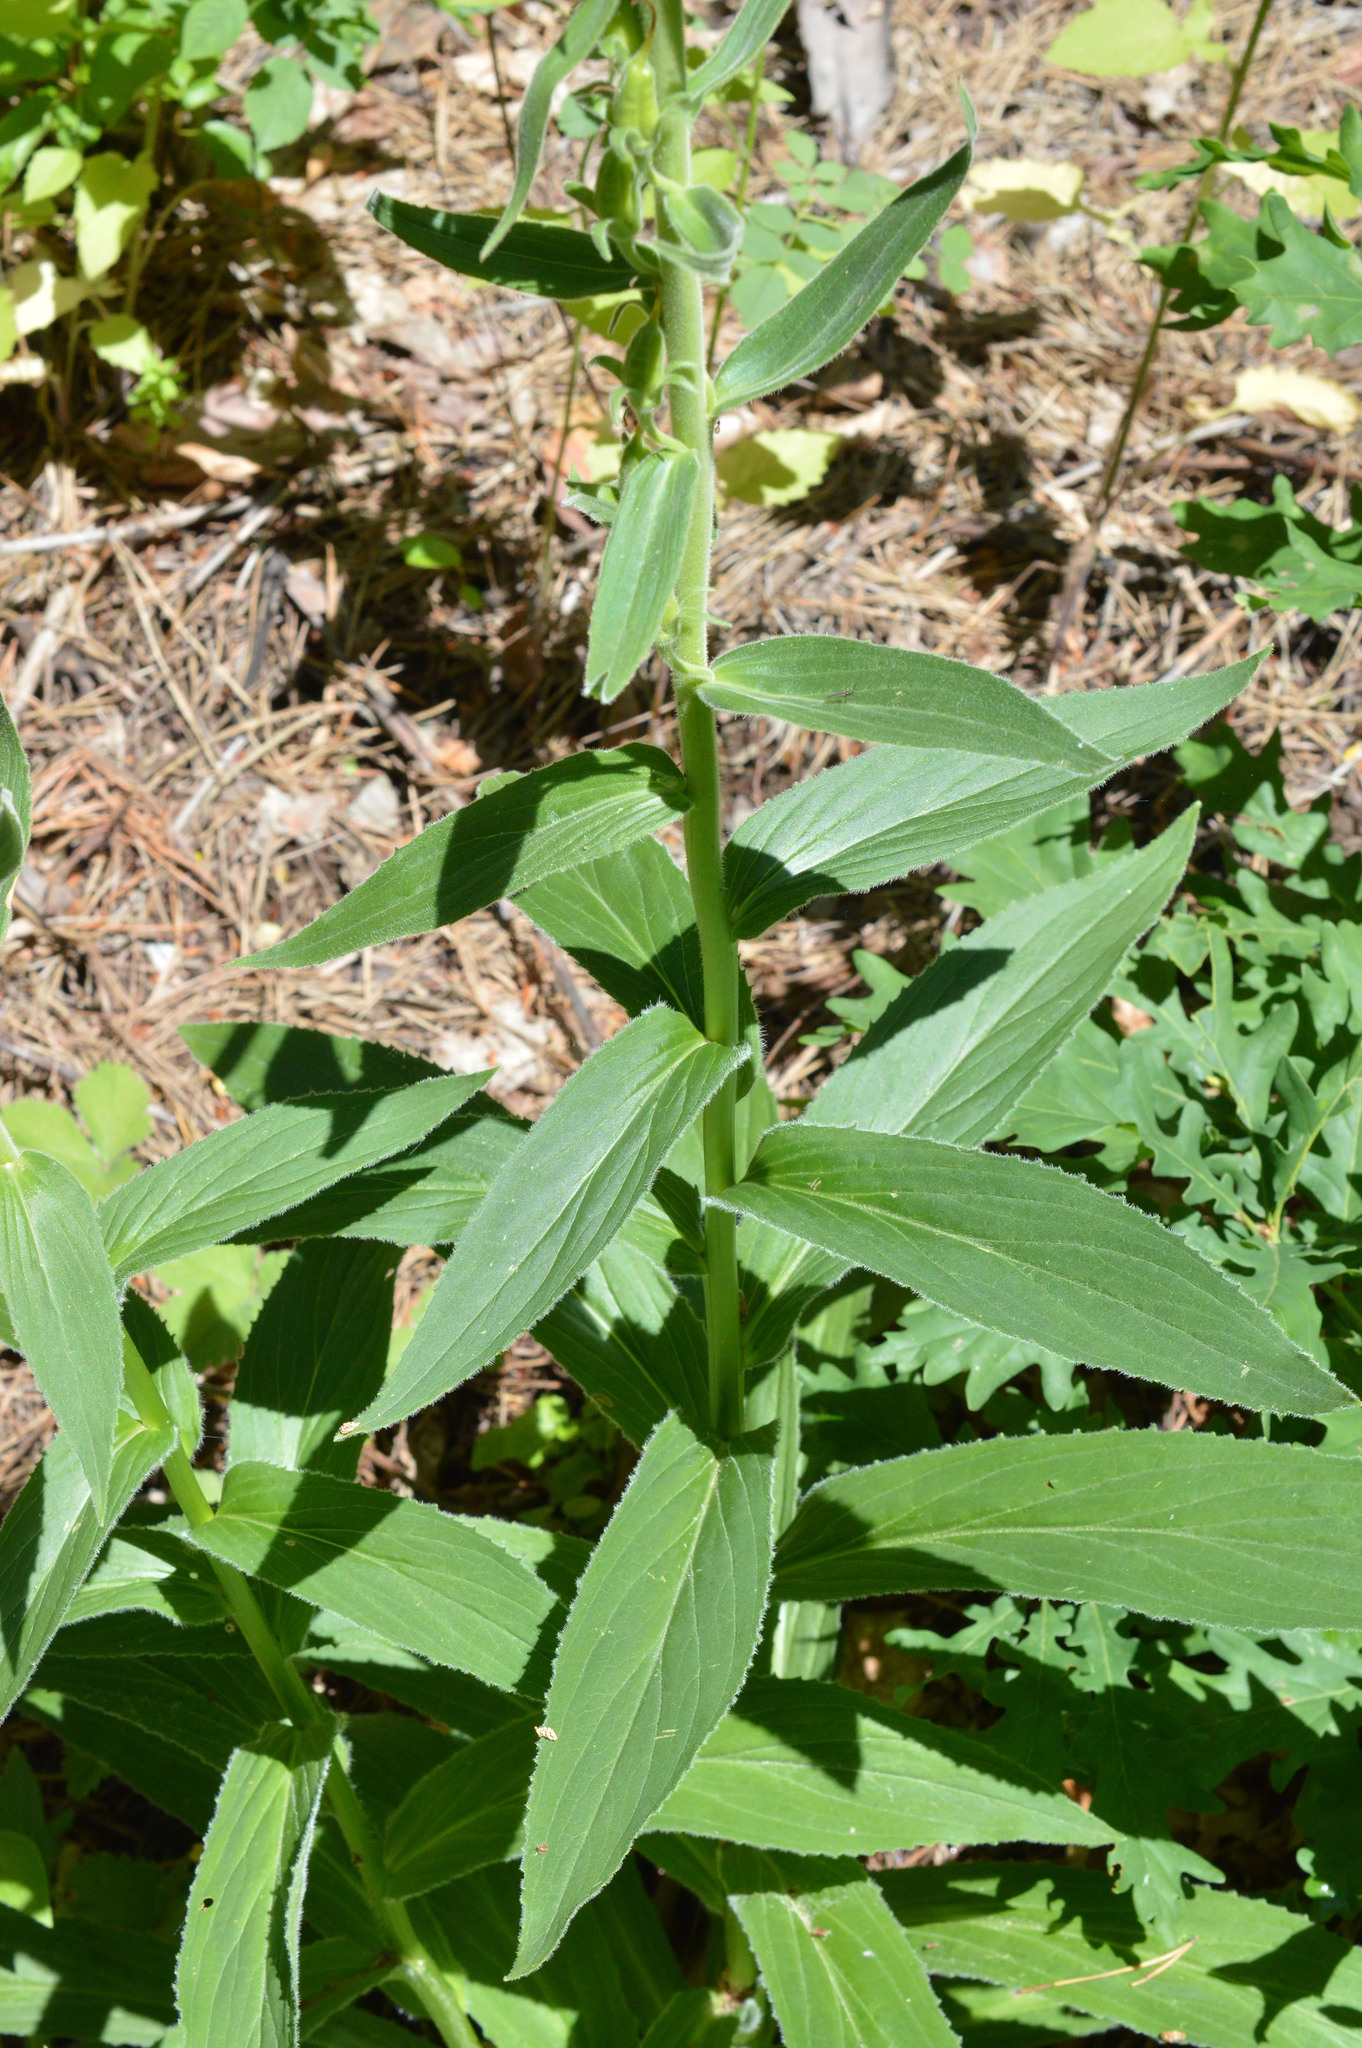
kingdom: Plantae
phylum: Tracheophyta
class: Magnoliopsida
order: Lamiales
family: Plantaginaceae
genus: Digitalis
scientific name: Digitalis grandiflora
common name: Yellow foxglove
